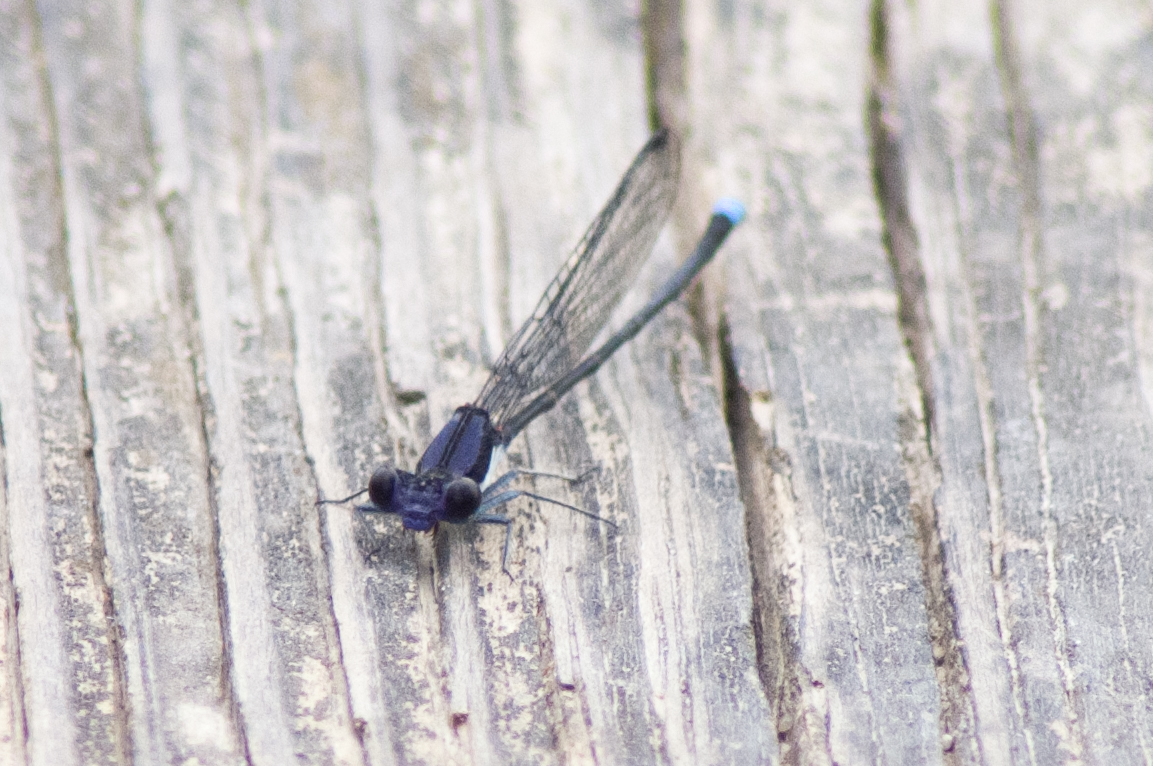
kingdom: Animalia
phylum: Arthropoda
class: Insecta
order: Odonata
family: Coenagrionidae
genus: Argia
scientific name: Argia tibialis
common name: Blue-tipped dancer
